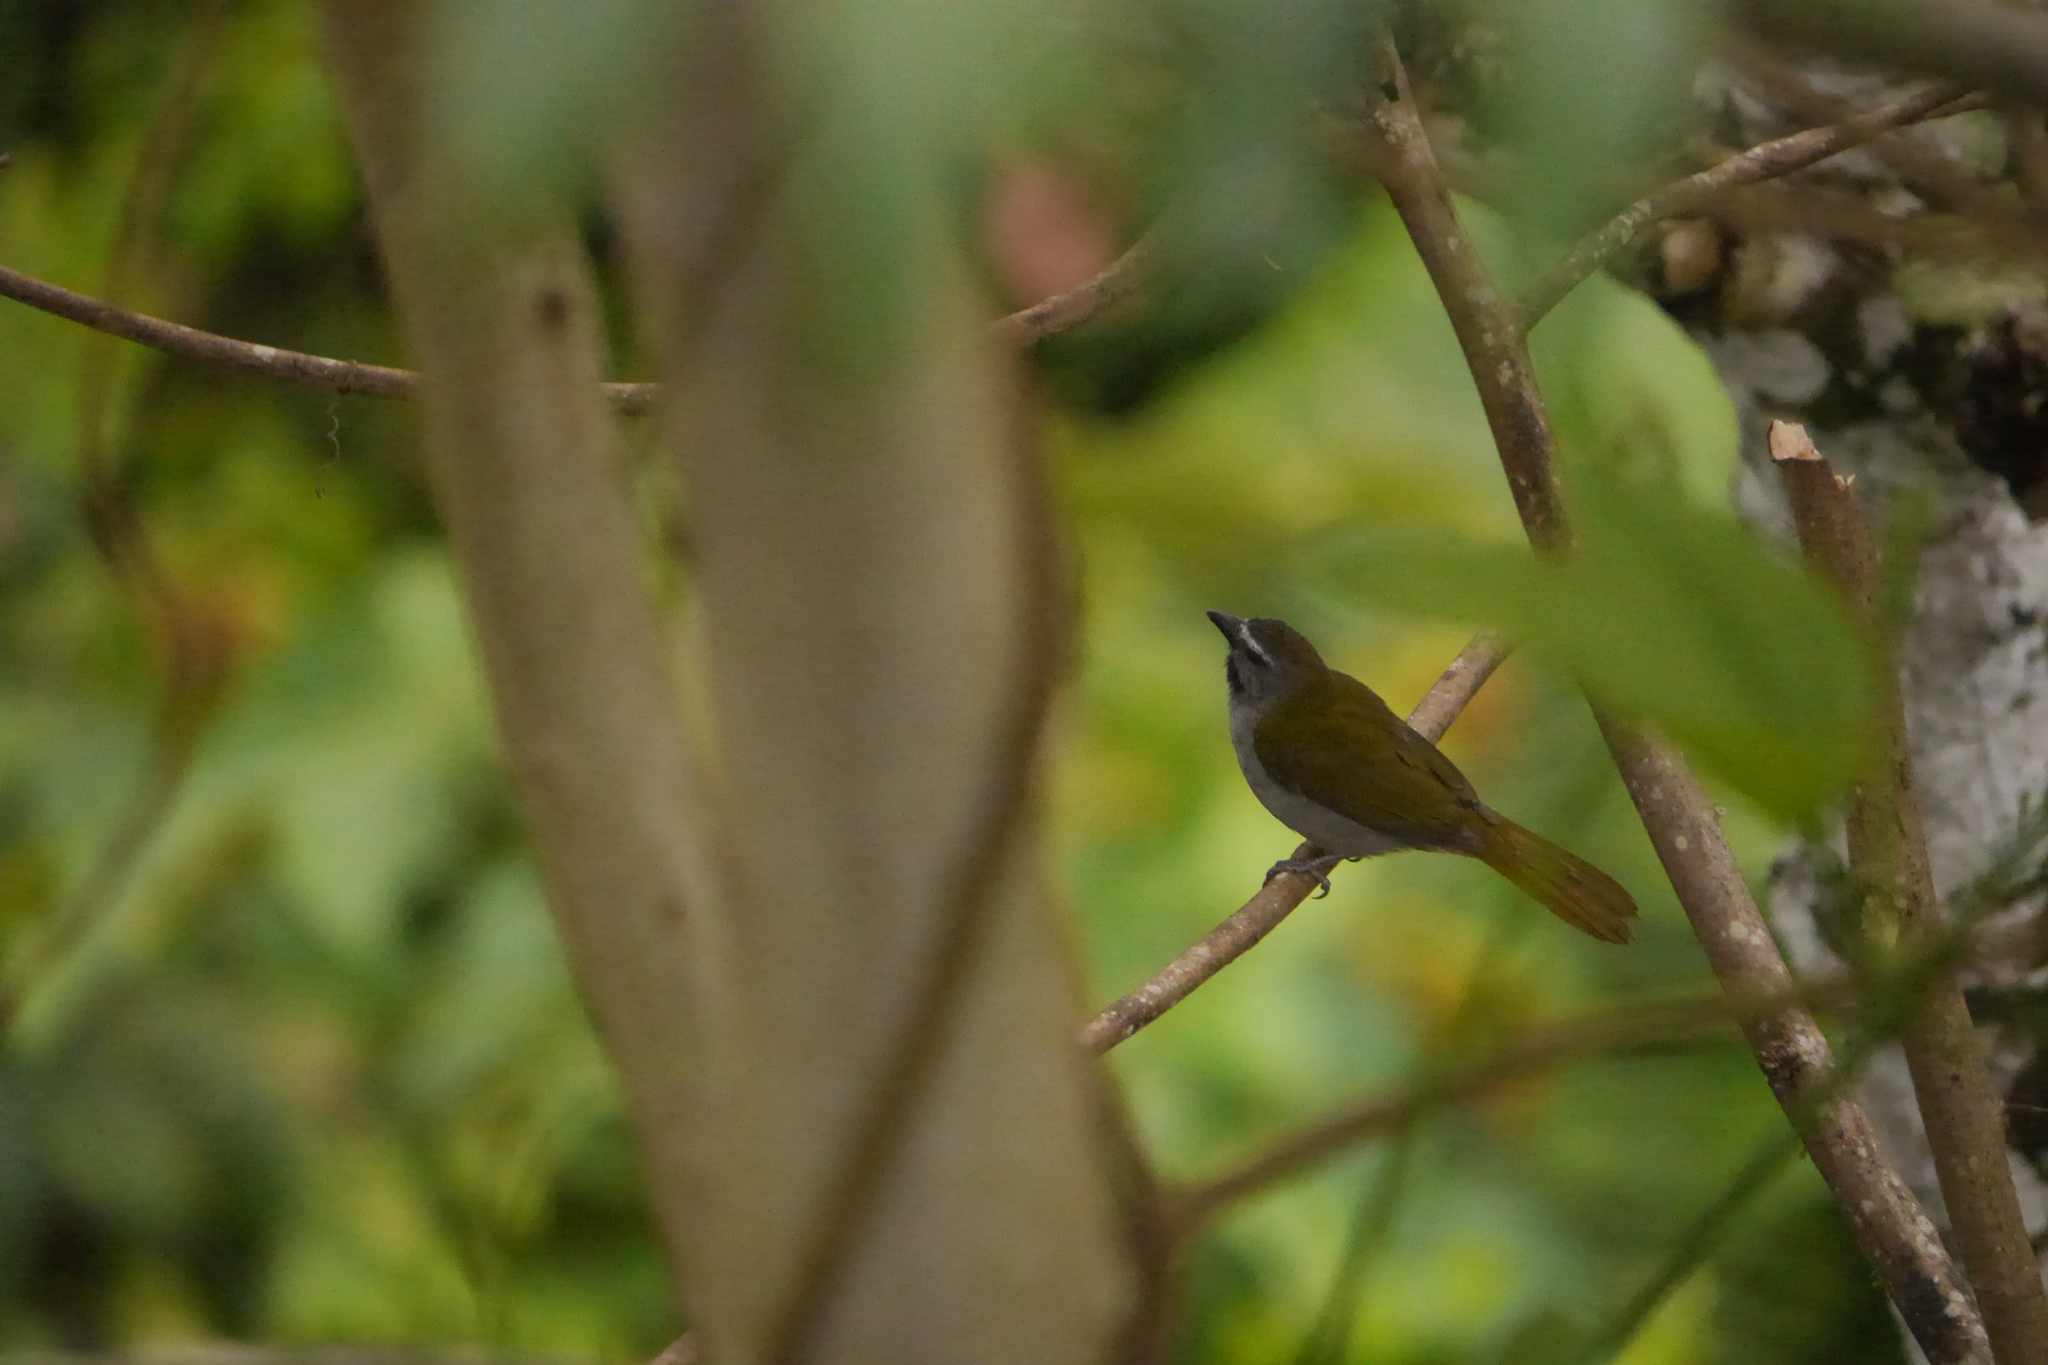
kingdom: Animalia
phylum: Chordata
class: Aves
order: Passeriformes
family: Thraupidae
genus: Saltator
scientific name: Saltator maximus
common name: Buff-throated saltator
